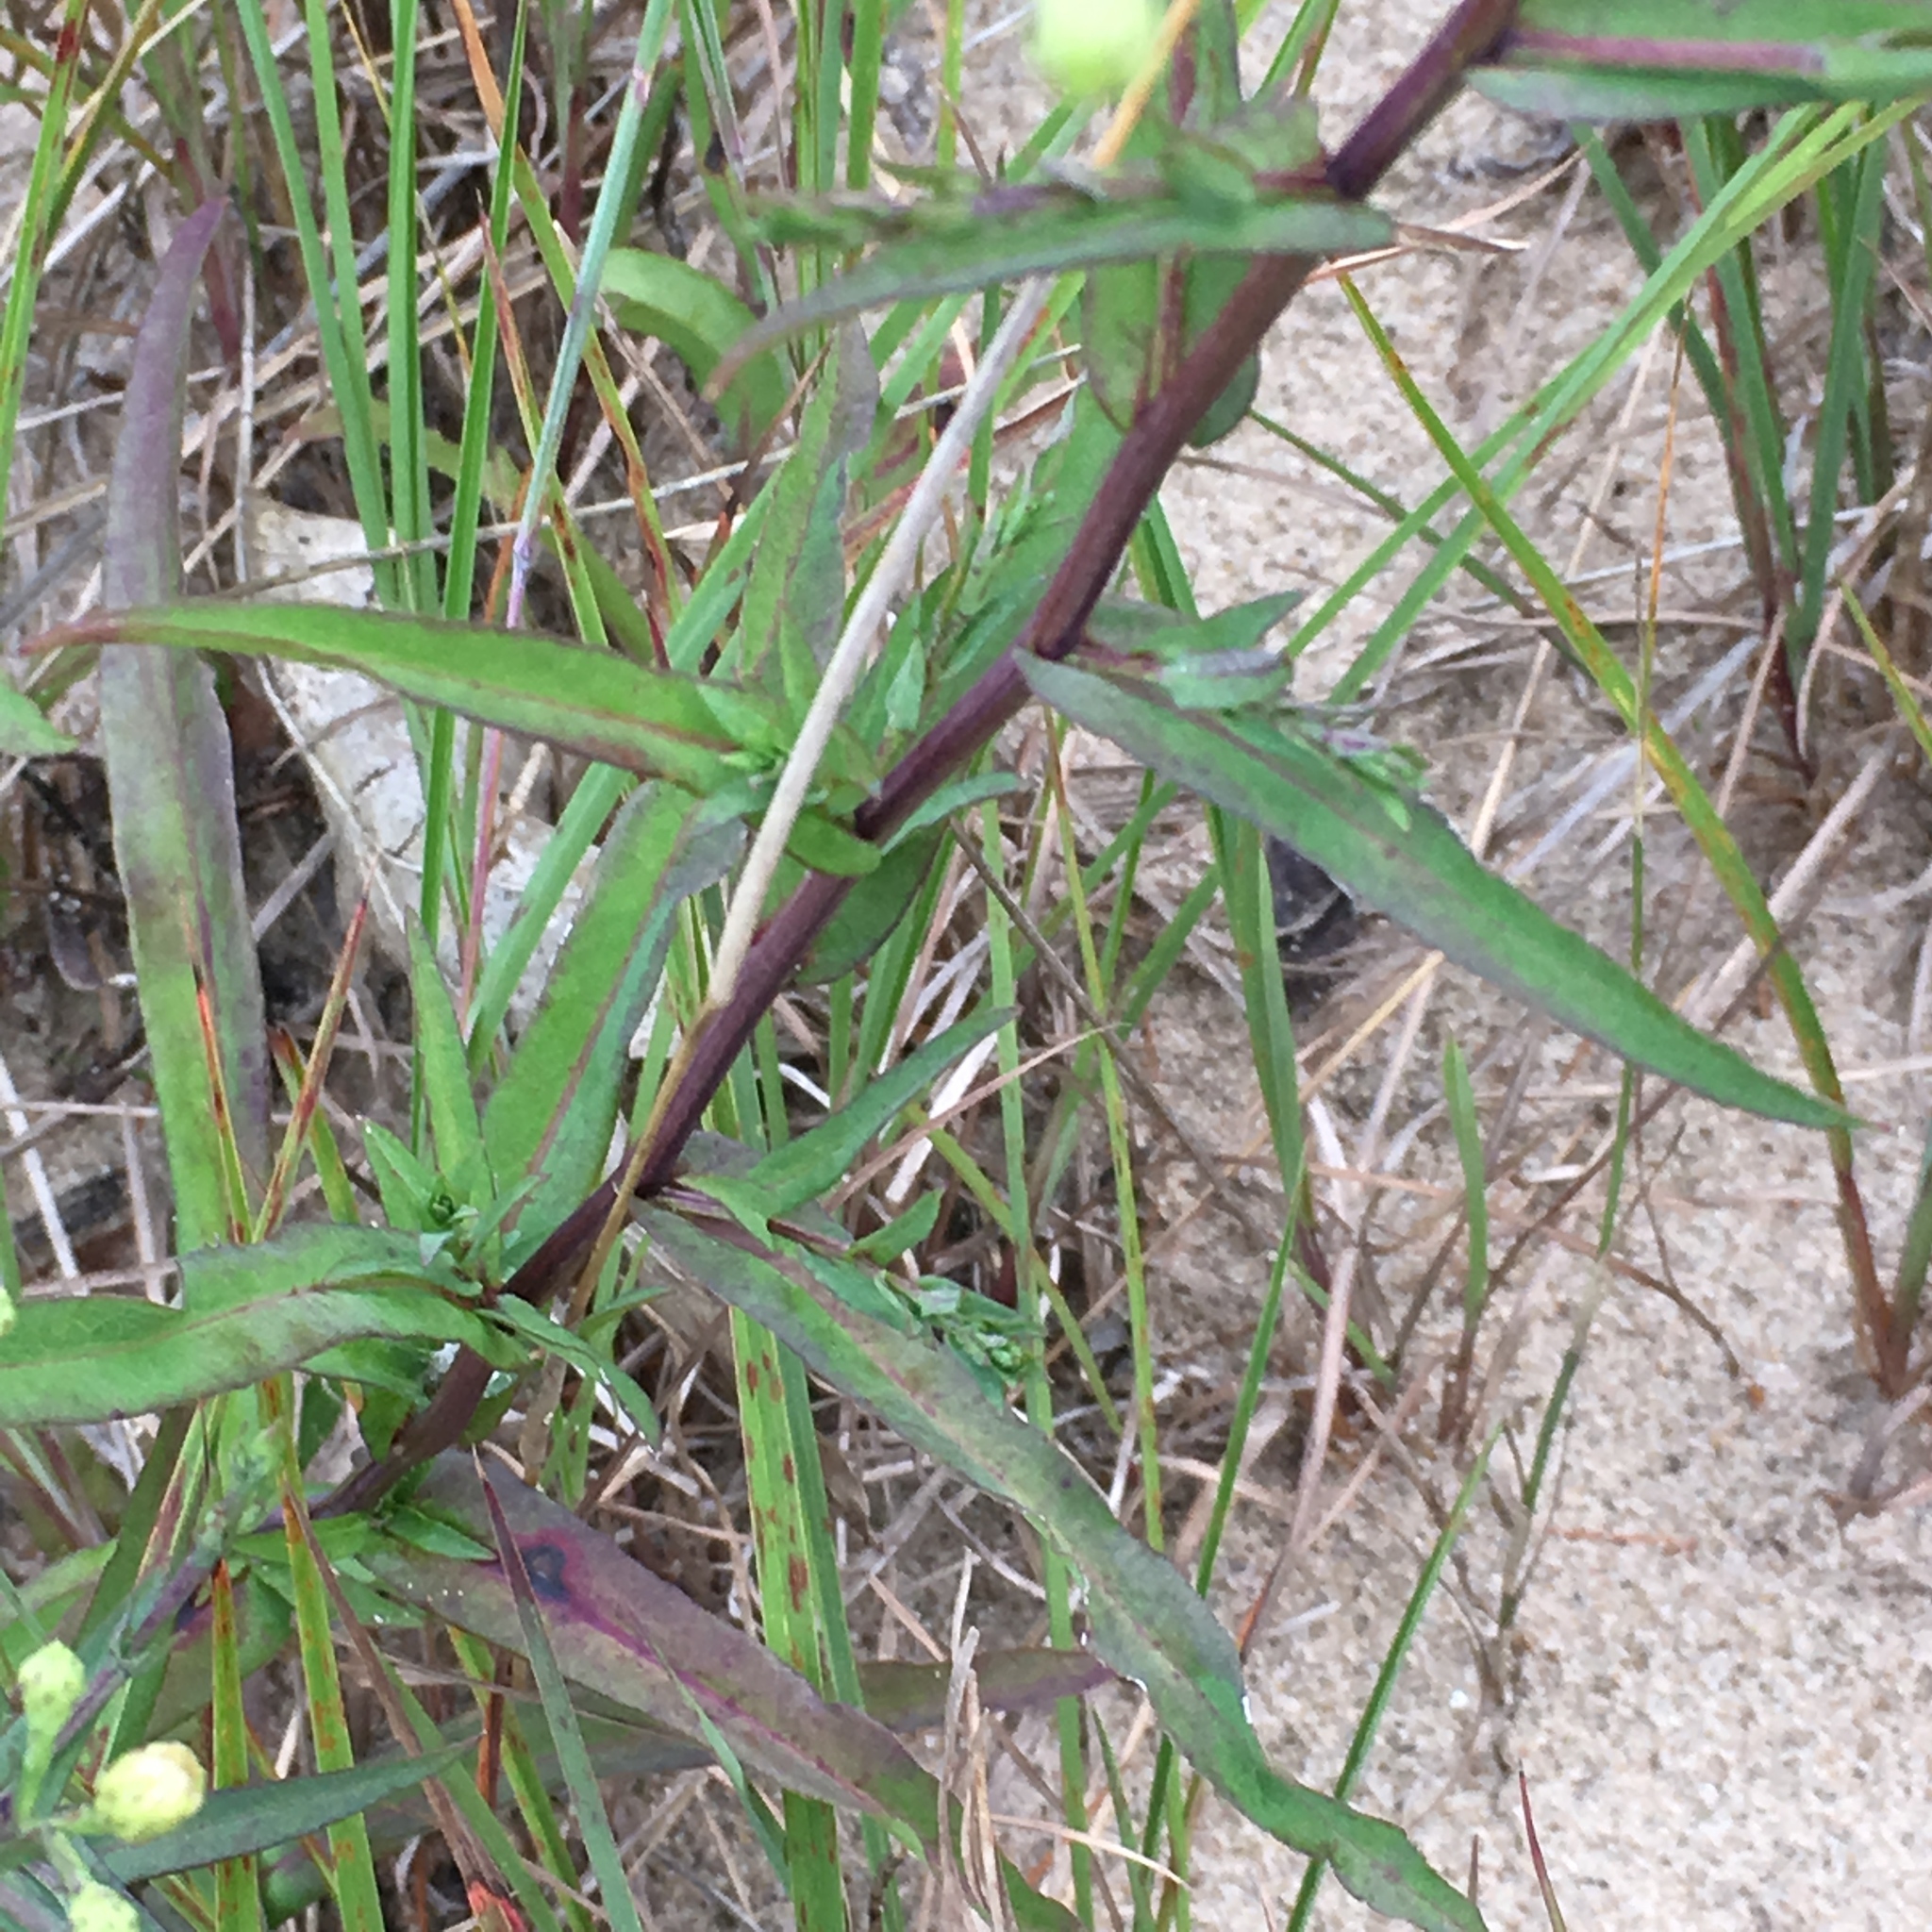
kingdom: Plantae
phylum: Tracheophyta
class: Magnoliopsida
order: Asterales
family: Asteraceae
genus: Symphyotrichum
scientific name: Symphyotrichum laeve
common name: Glaucous aster
